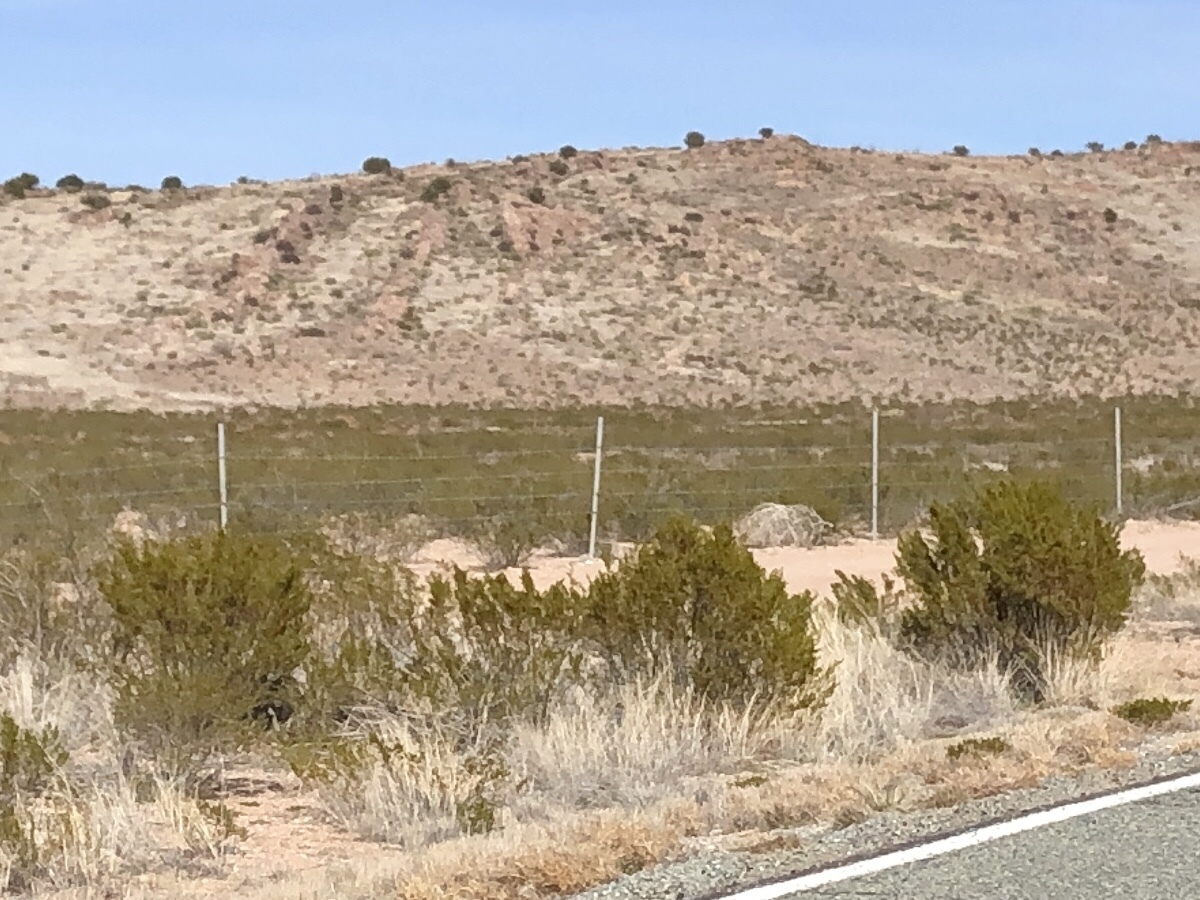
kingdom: Plantae
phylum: Tracheophyta
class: Magnoliopsida
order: Zygophyllales
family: Zygophyllaceae
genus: Larrea
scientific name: Larrea tridentata
